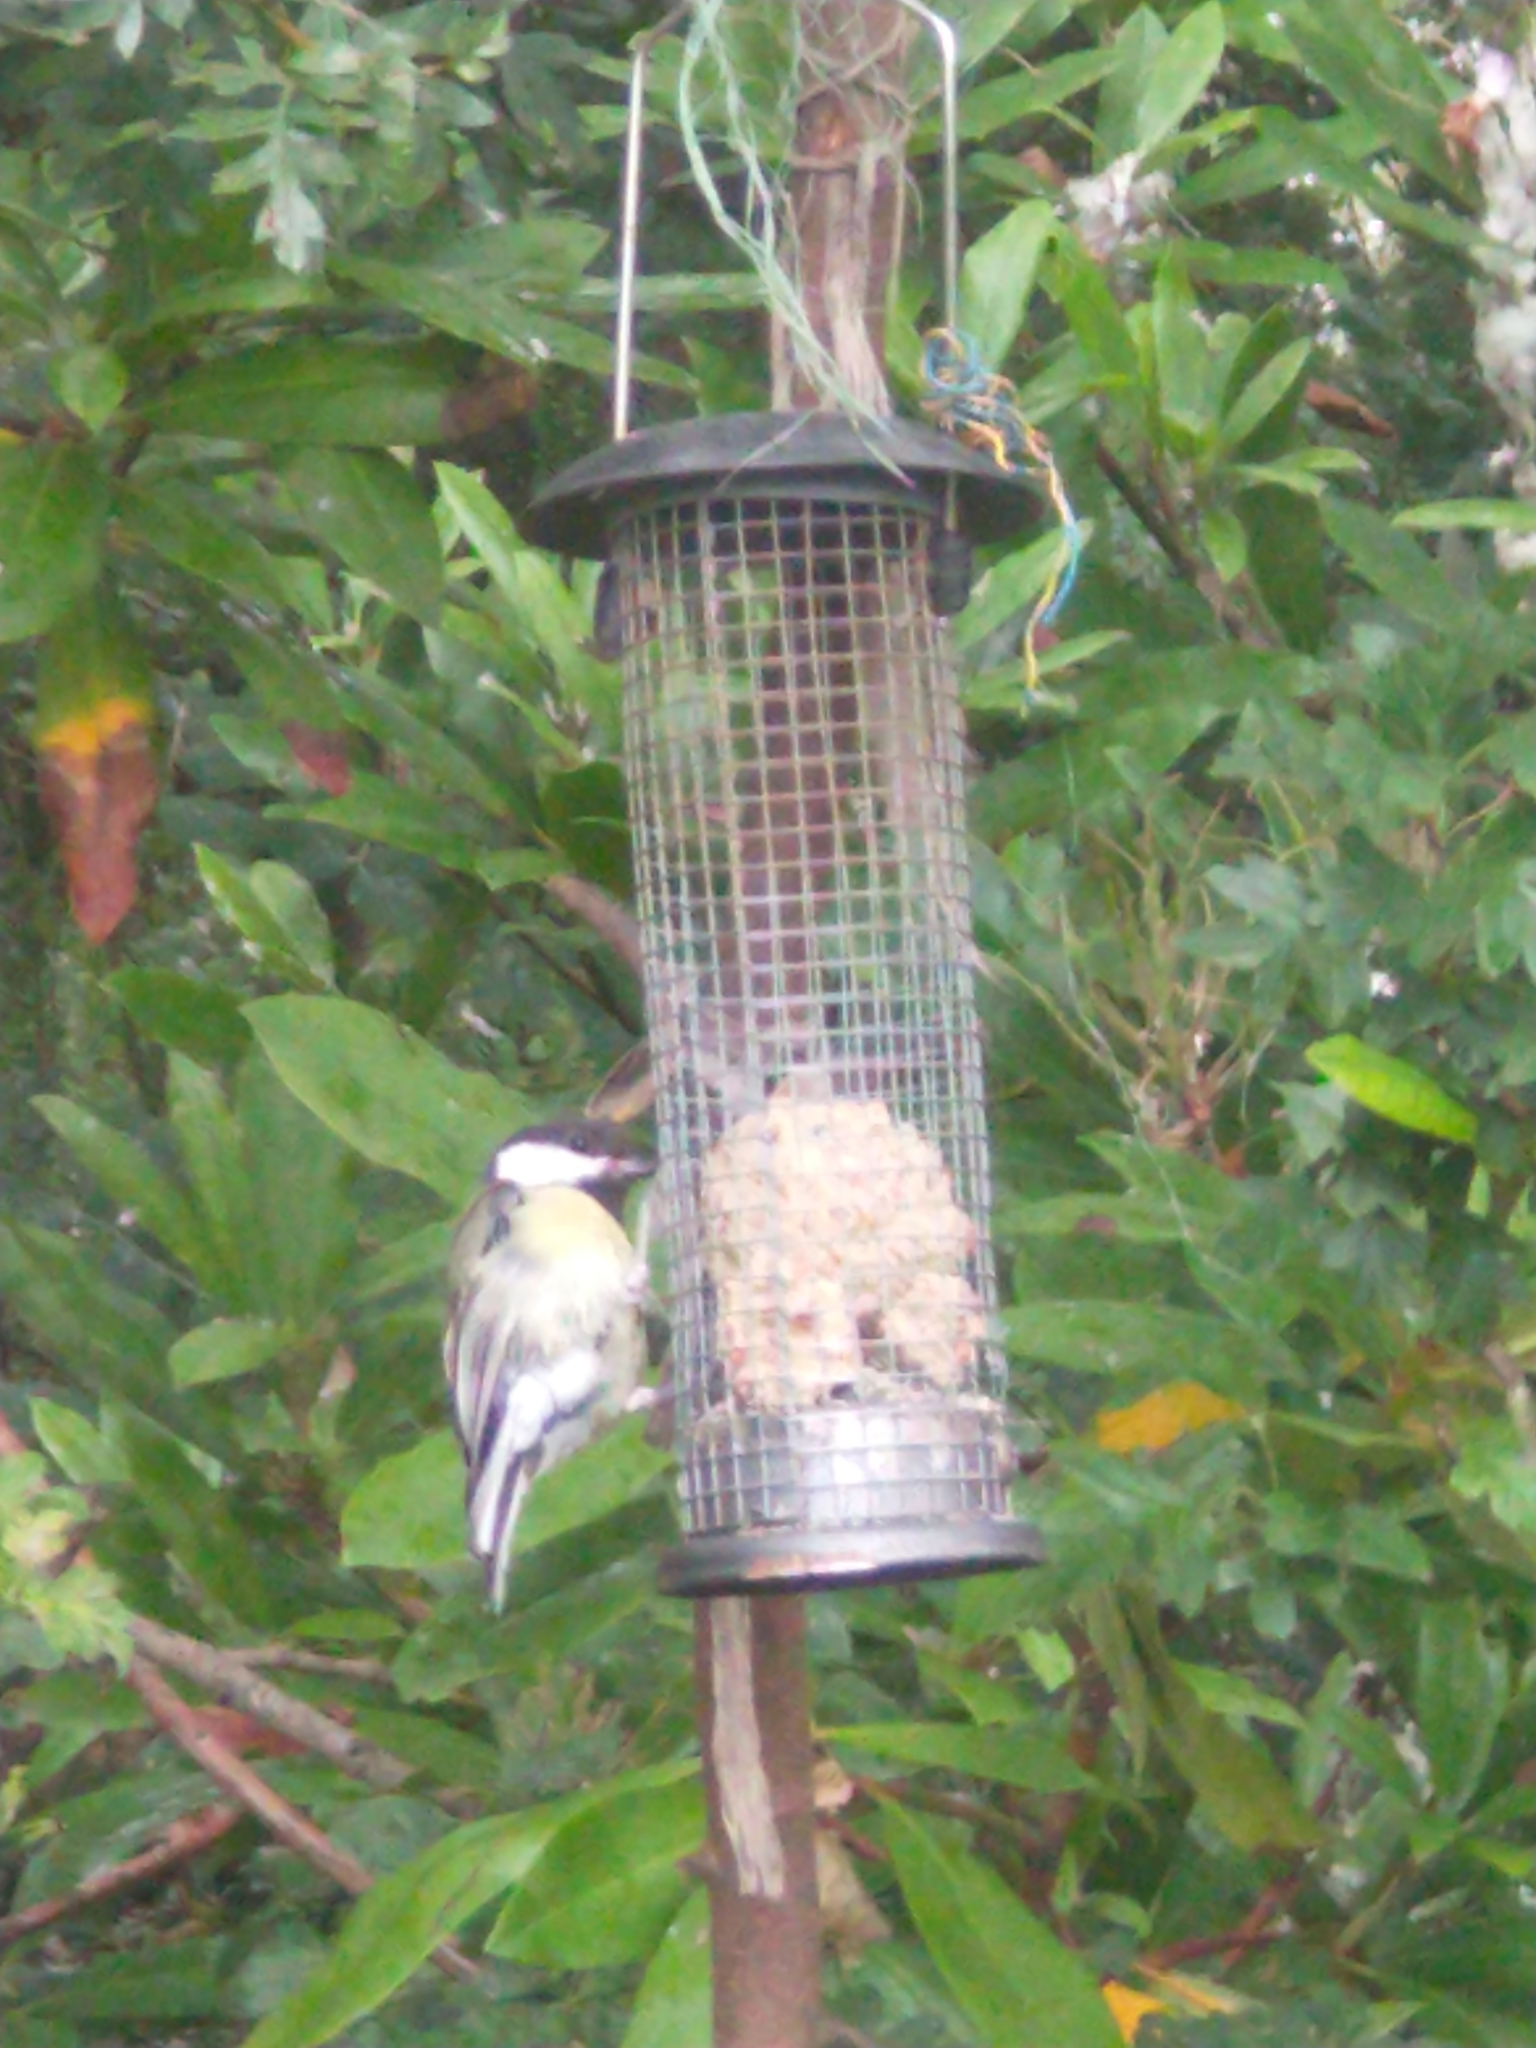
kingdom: Animalia
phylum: Chordata
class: Aves
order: Passeriformes
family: Paridae
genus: Parus
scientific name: Parus major
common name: Great tit
